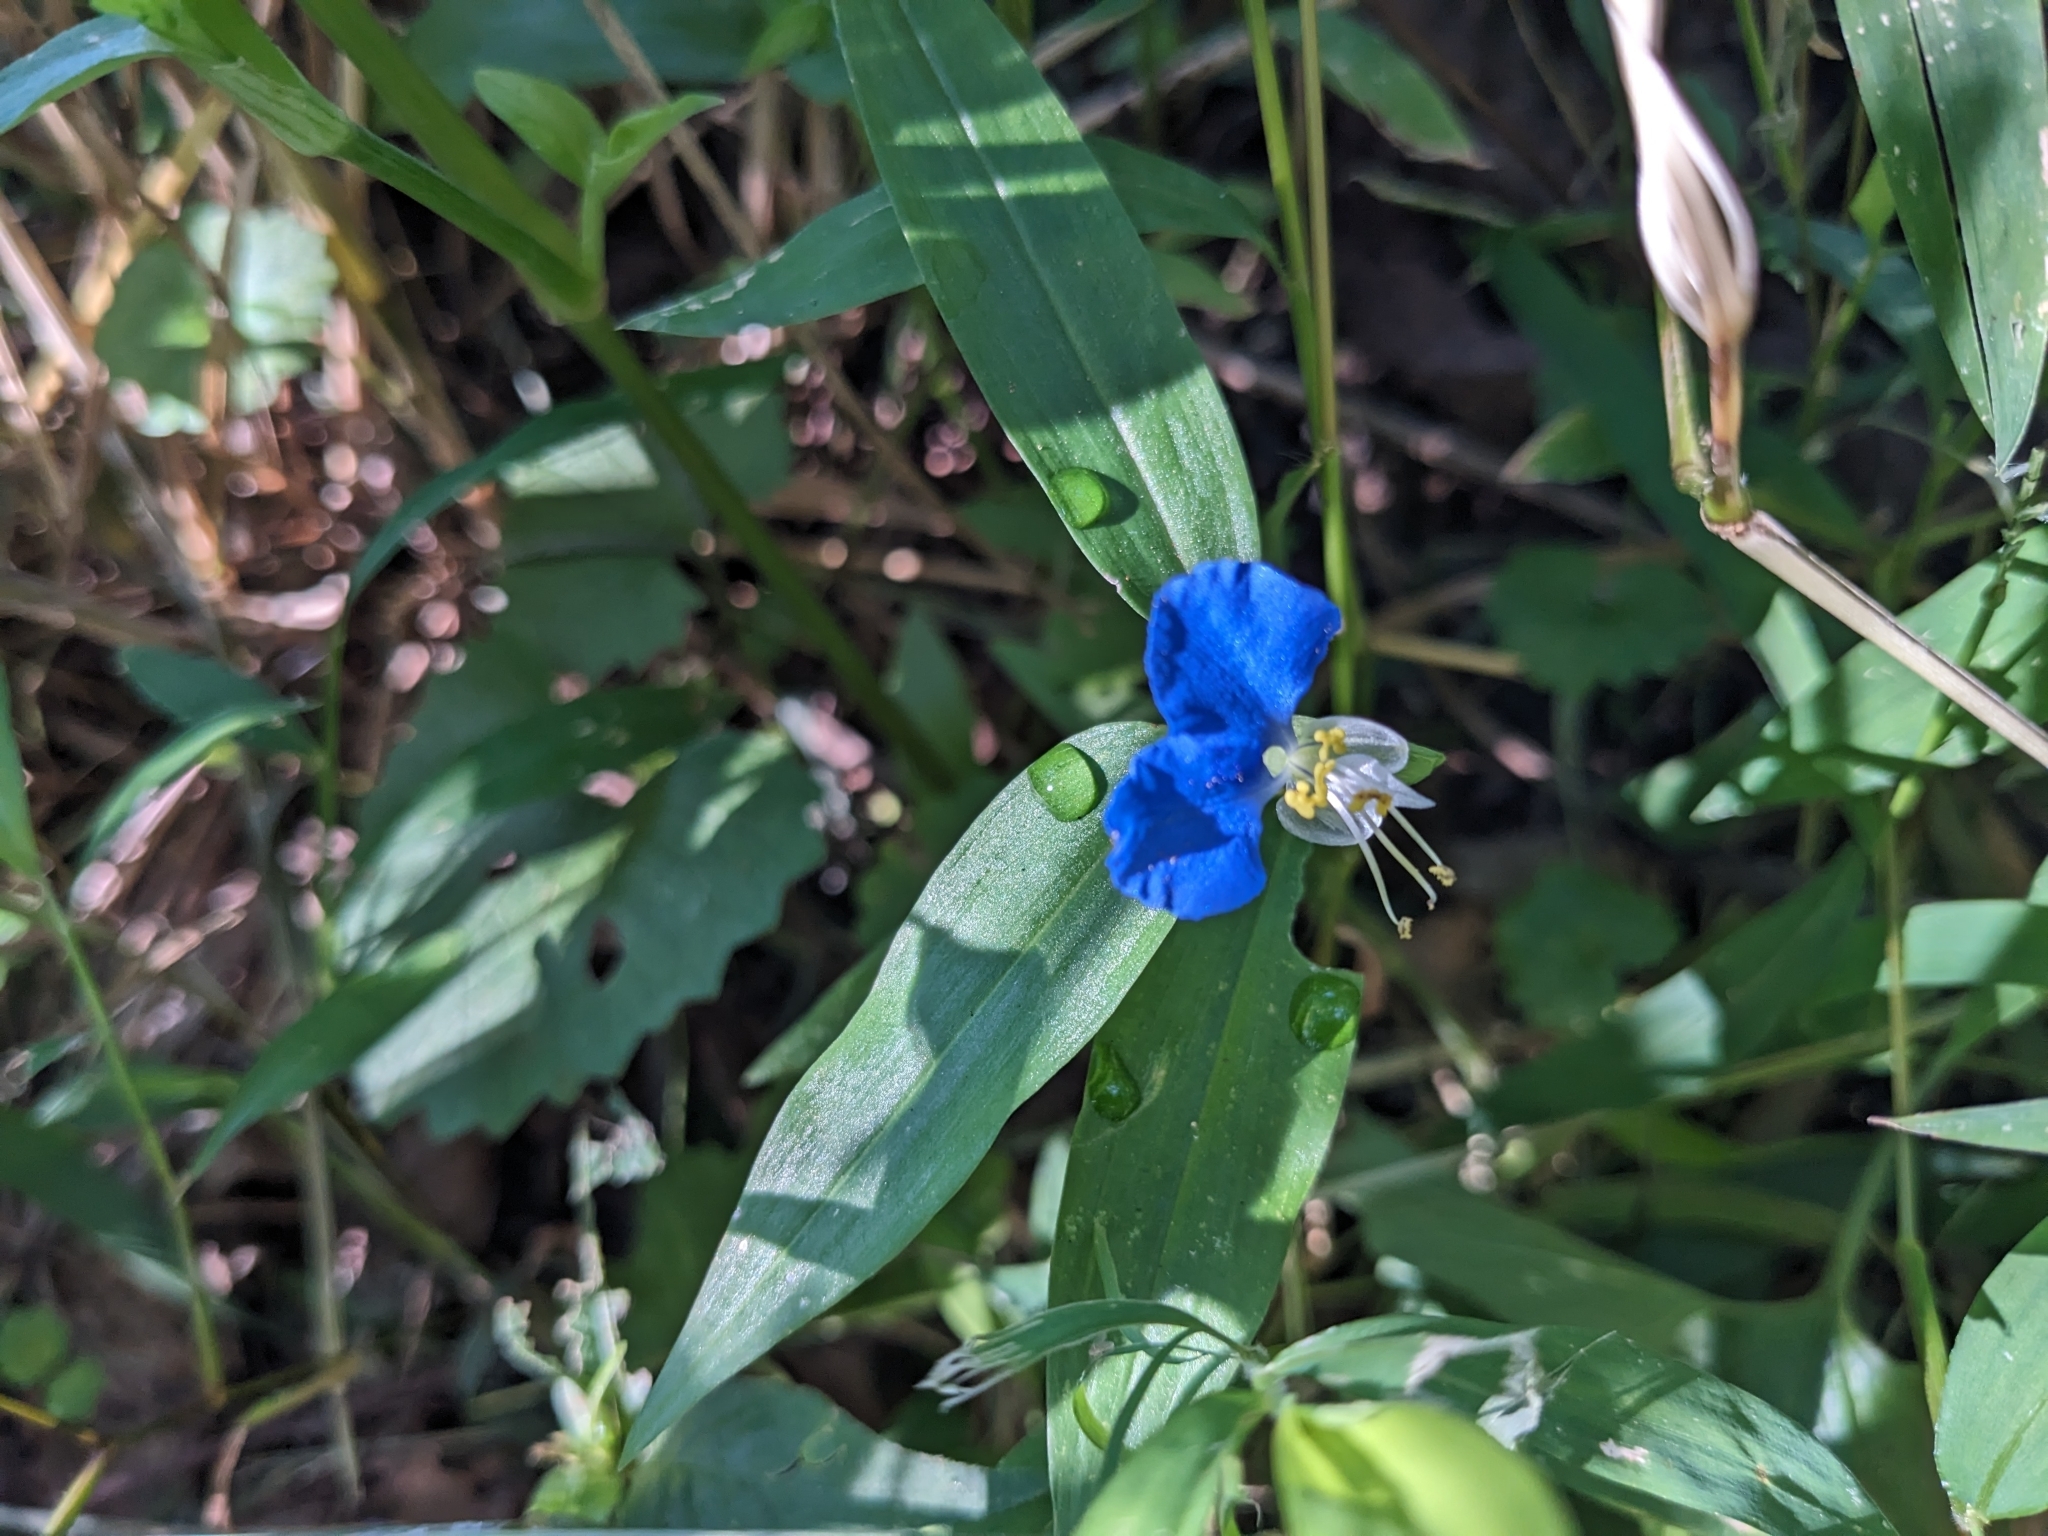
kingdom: Plantae
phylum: Tracheophyta
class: Liliopsida
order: Commelinales
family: Commelinaceae
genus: Commelina
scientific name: Commelina communis
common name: Asiatic dayflower
